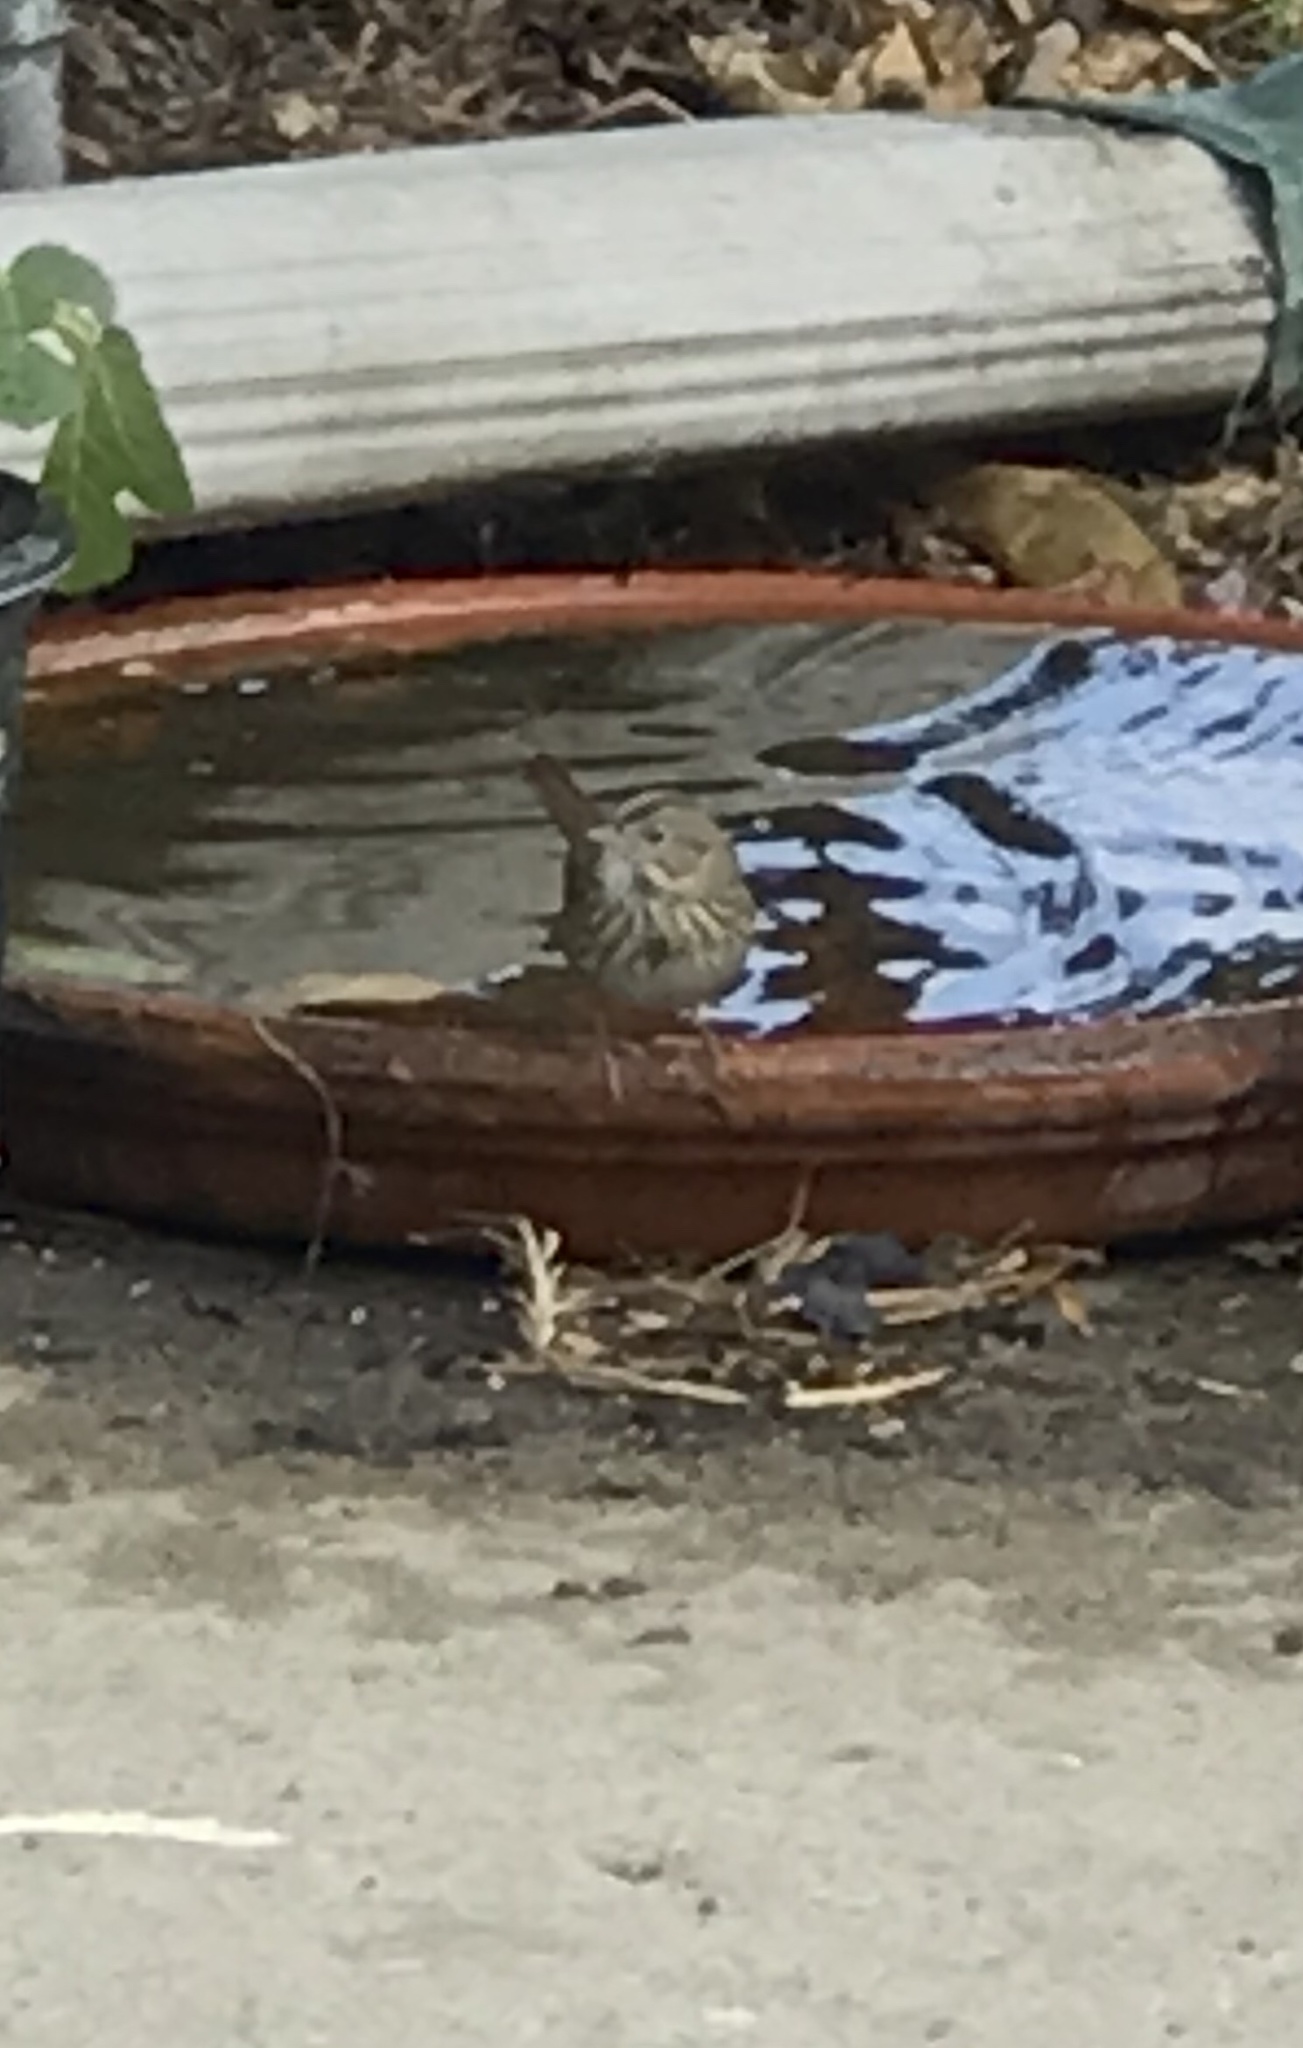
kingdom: Animalia
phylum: Chordata
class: Aves
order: Passeriformes
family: Passerellidae
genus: Melospiza
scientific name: Melospiza lincolnii
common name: Lincoln's sparrow
